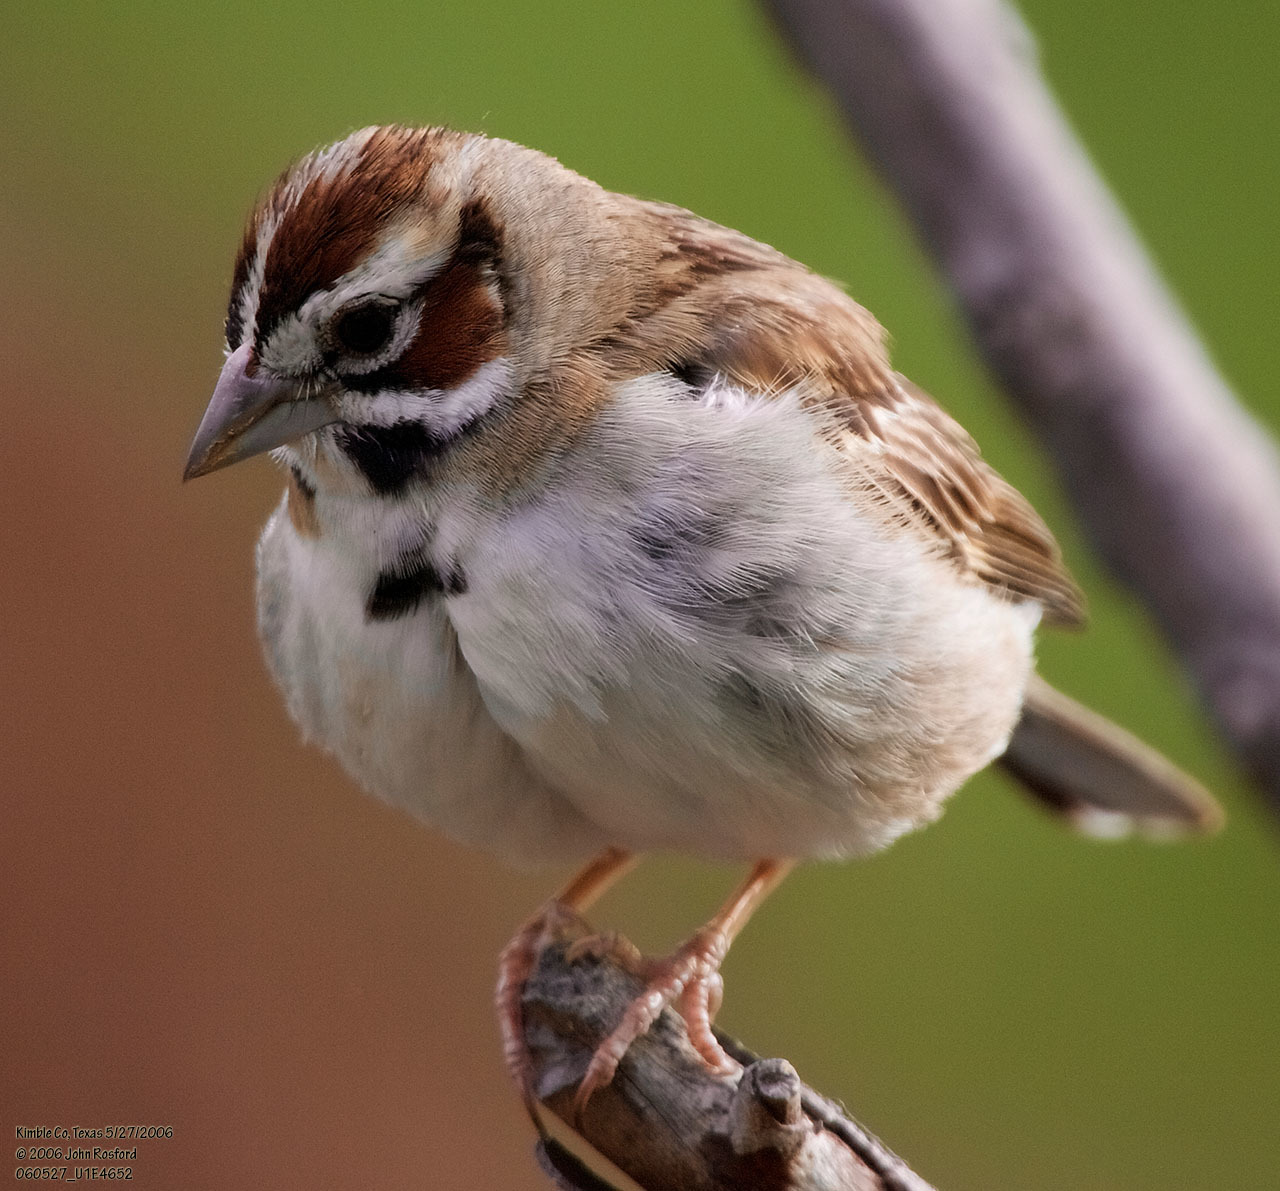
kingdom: Animalia
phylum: Chordata
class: Aves
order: Passeriformes
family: Passerellidae
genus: Chondestes
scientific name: Chondestes grammacus
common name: Lark sparrow
